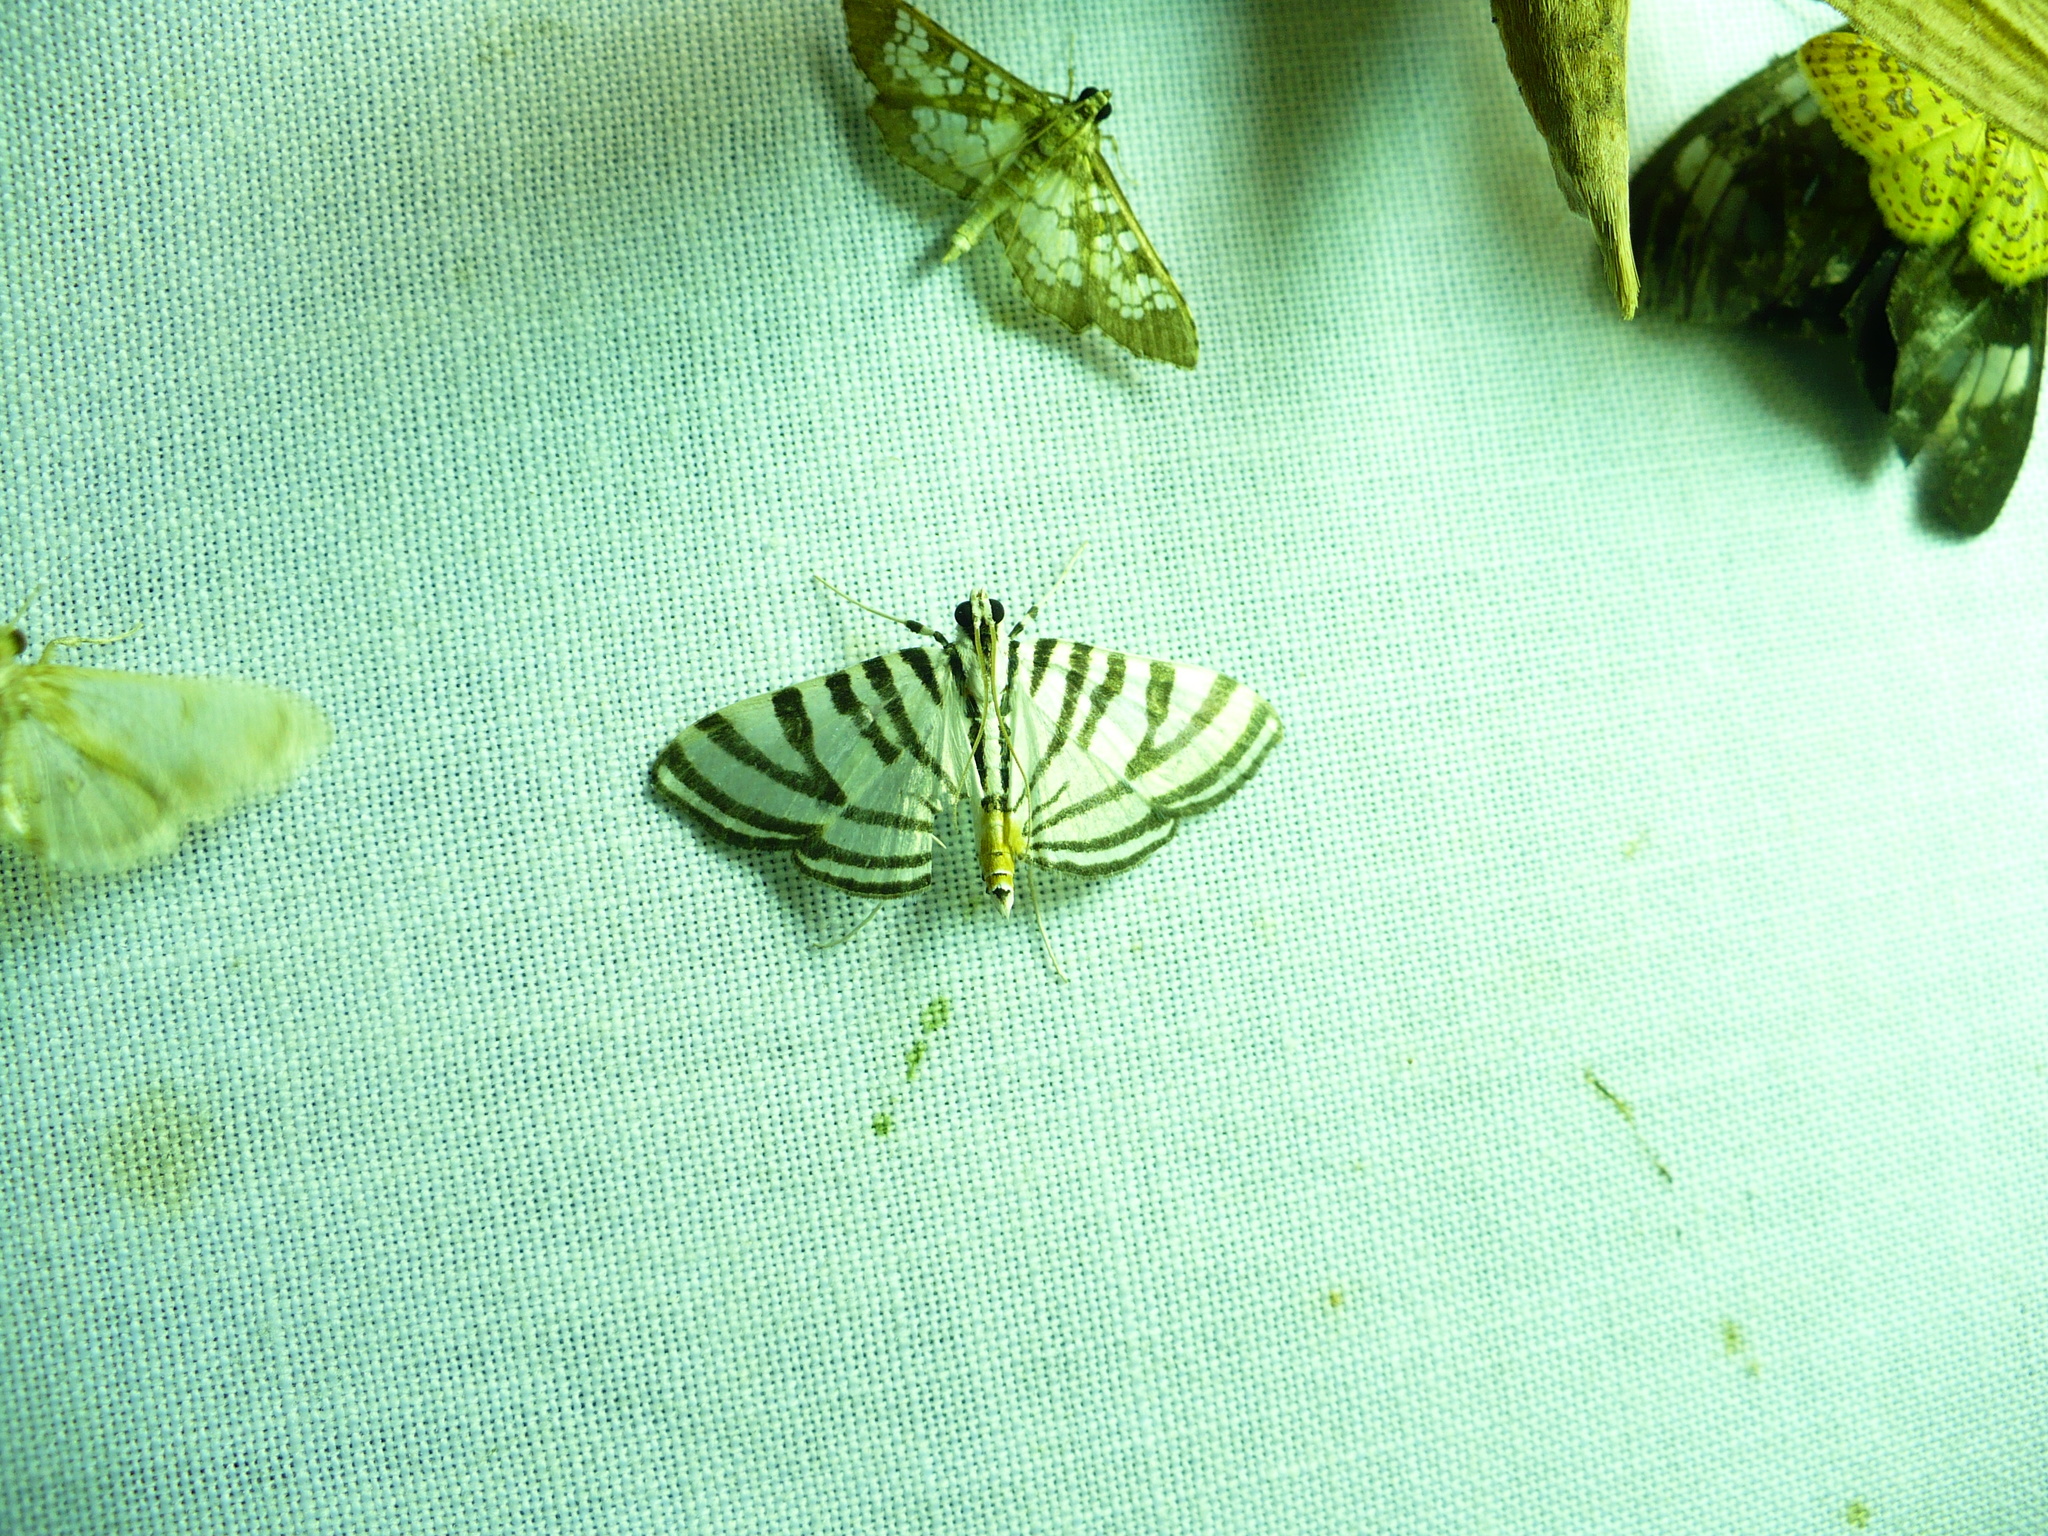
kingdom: Animalia
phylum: Arthropoda
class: Insecta
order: Lepidoptera
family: Crambidae
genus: Conchylodes
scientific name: Conchylodes grammaphora
